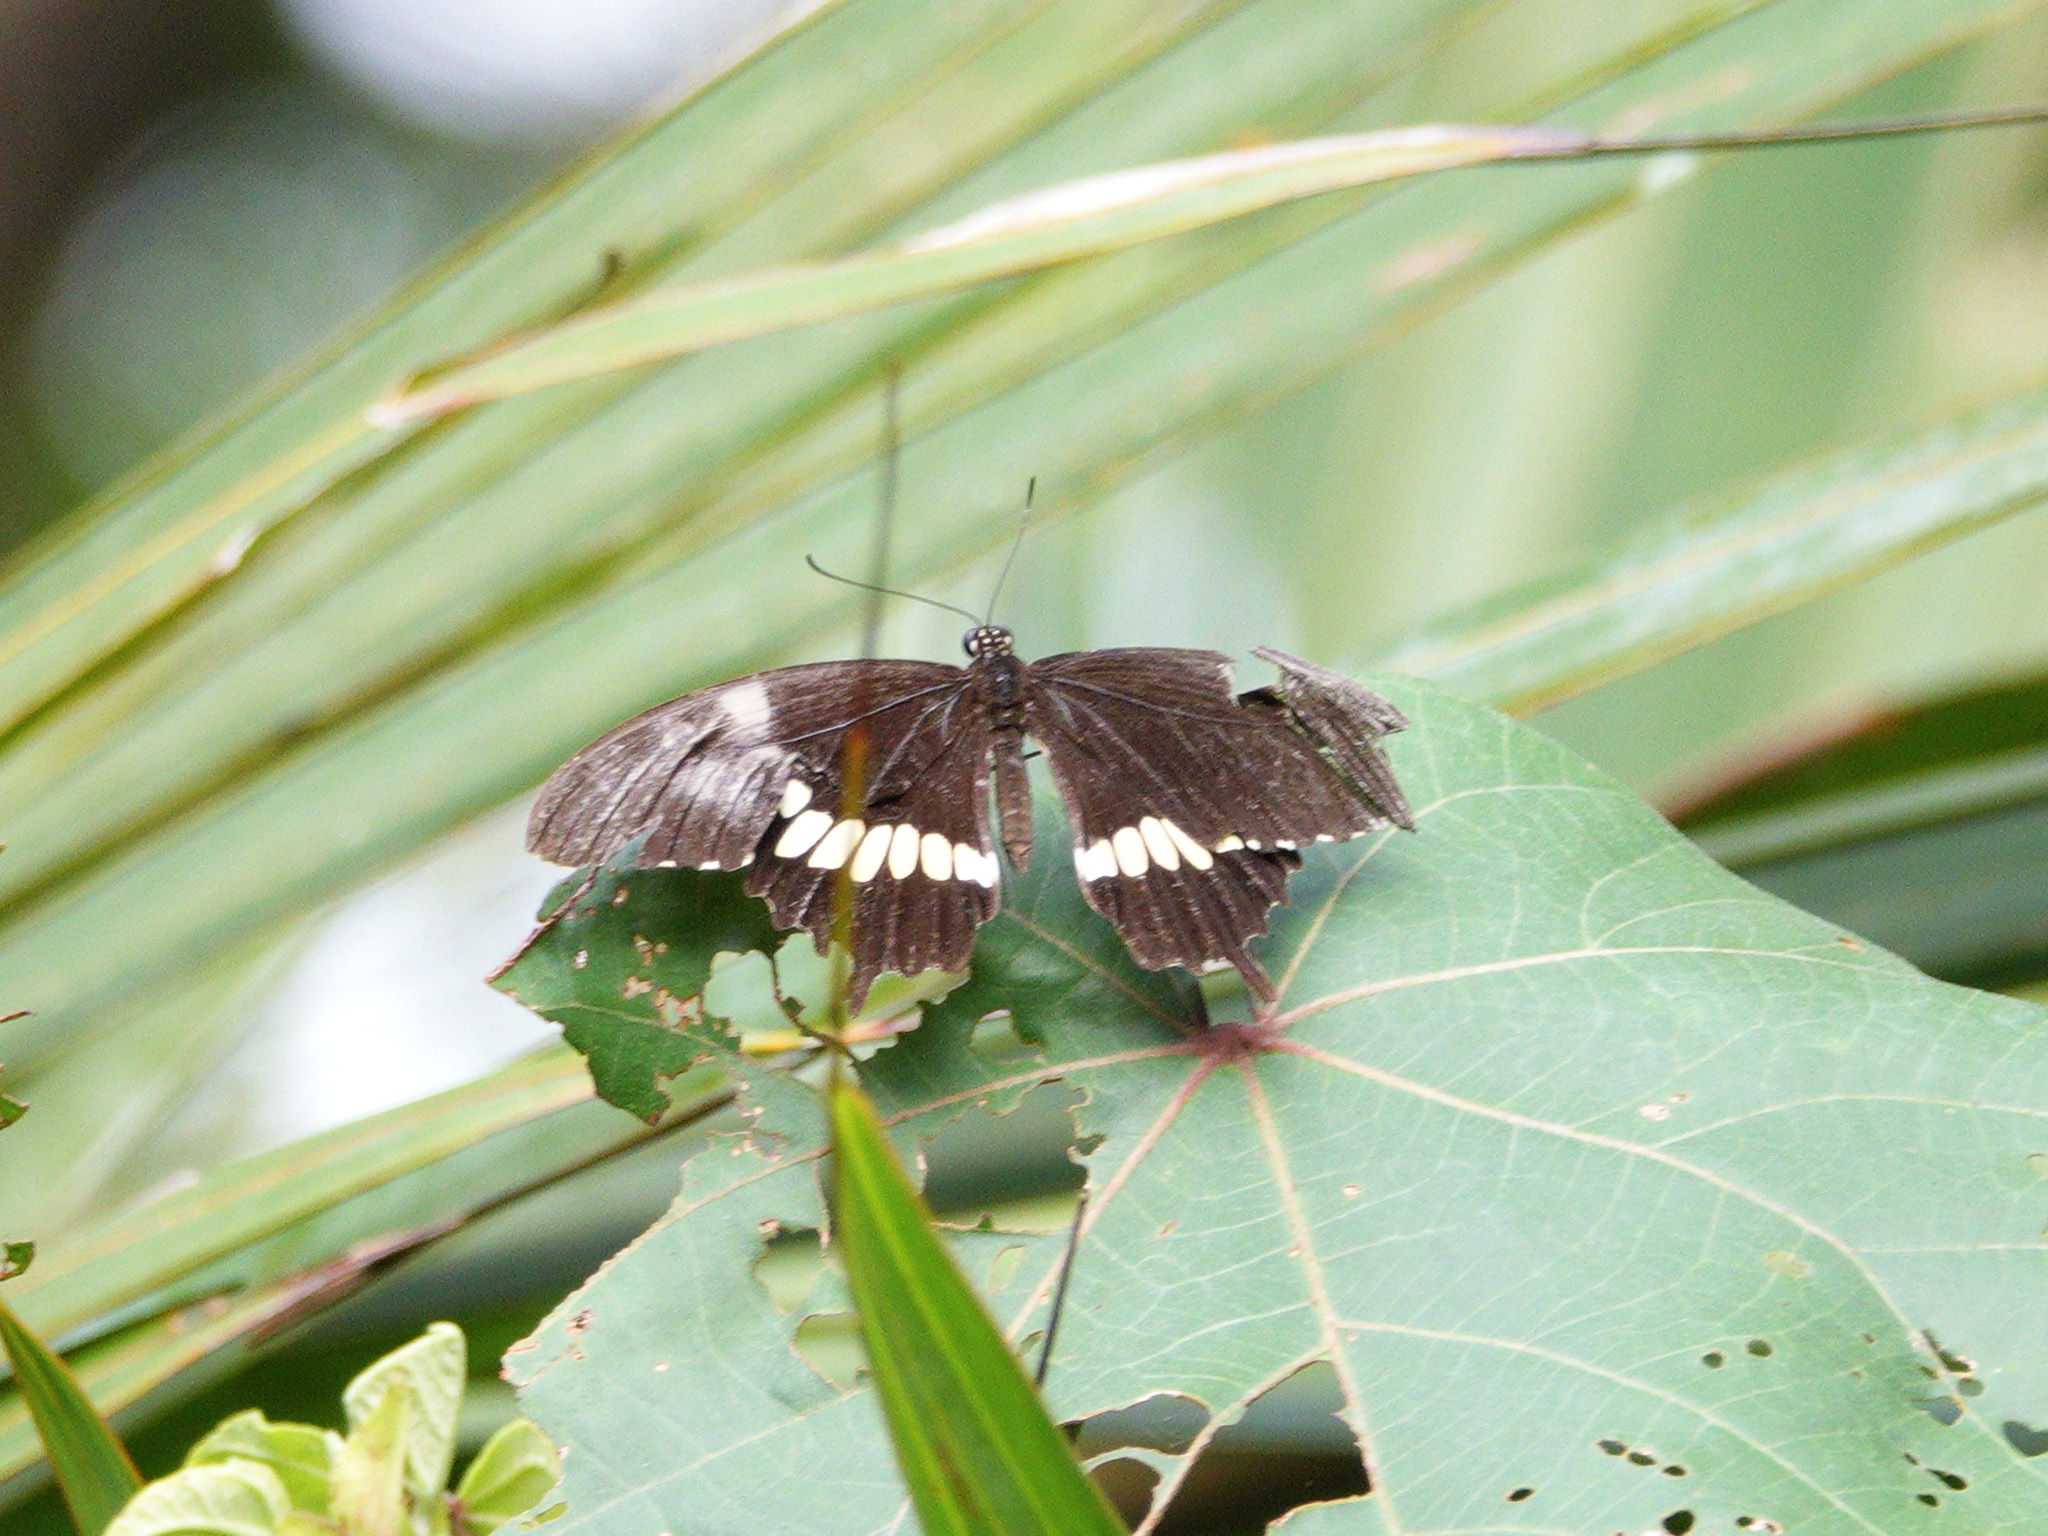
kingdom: Animalia
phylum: Arthropoda
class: Insecta
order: Lepidoptera
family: Papilionidae
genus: Papilio
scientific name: Papilio polytes
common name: Common mormon
